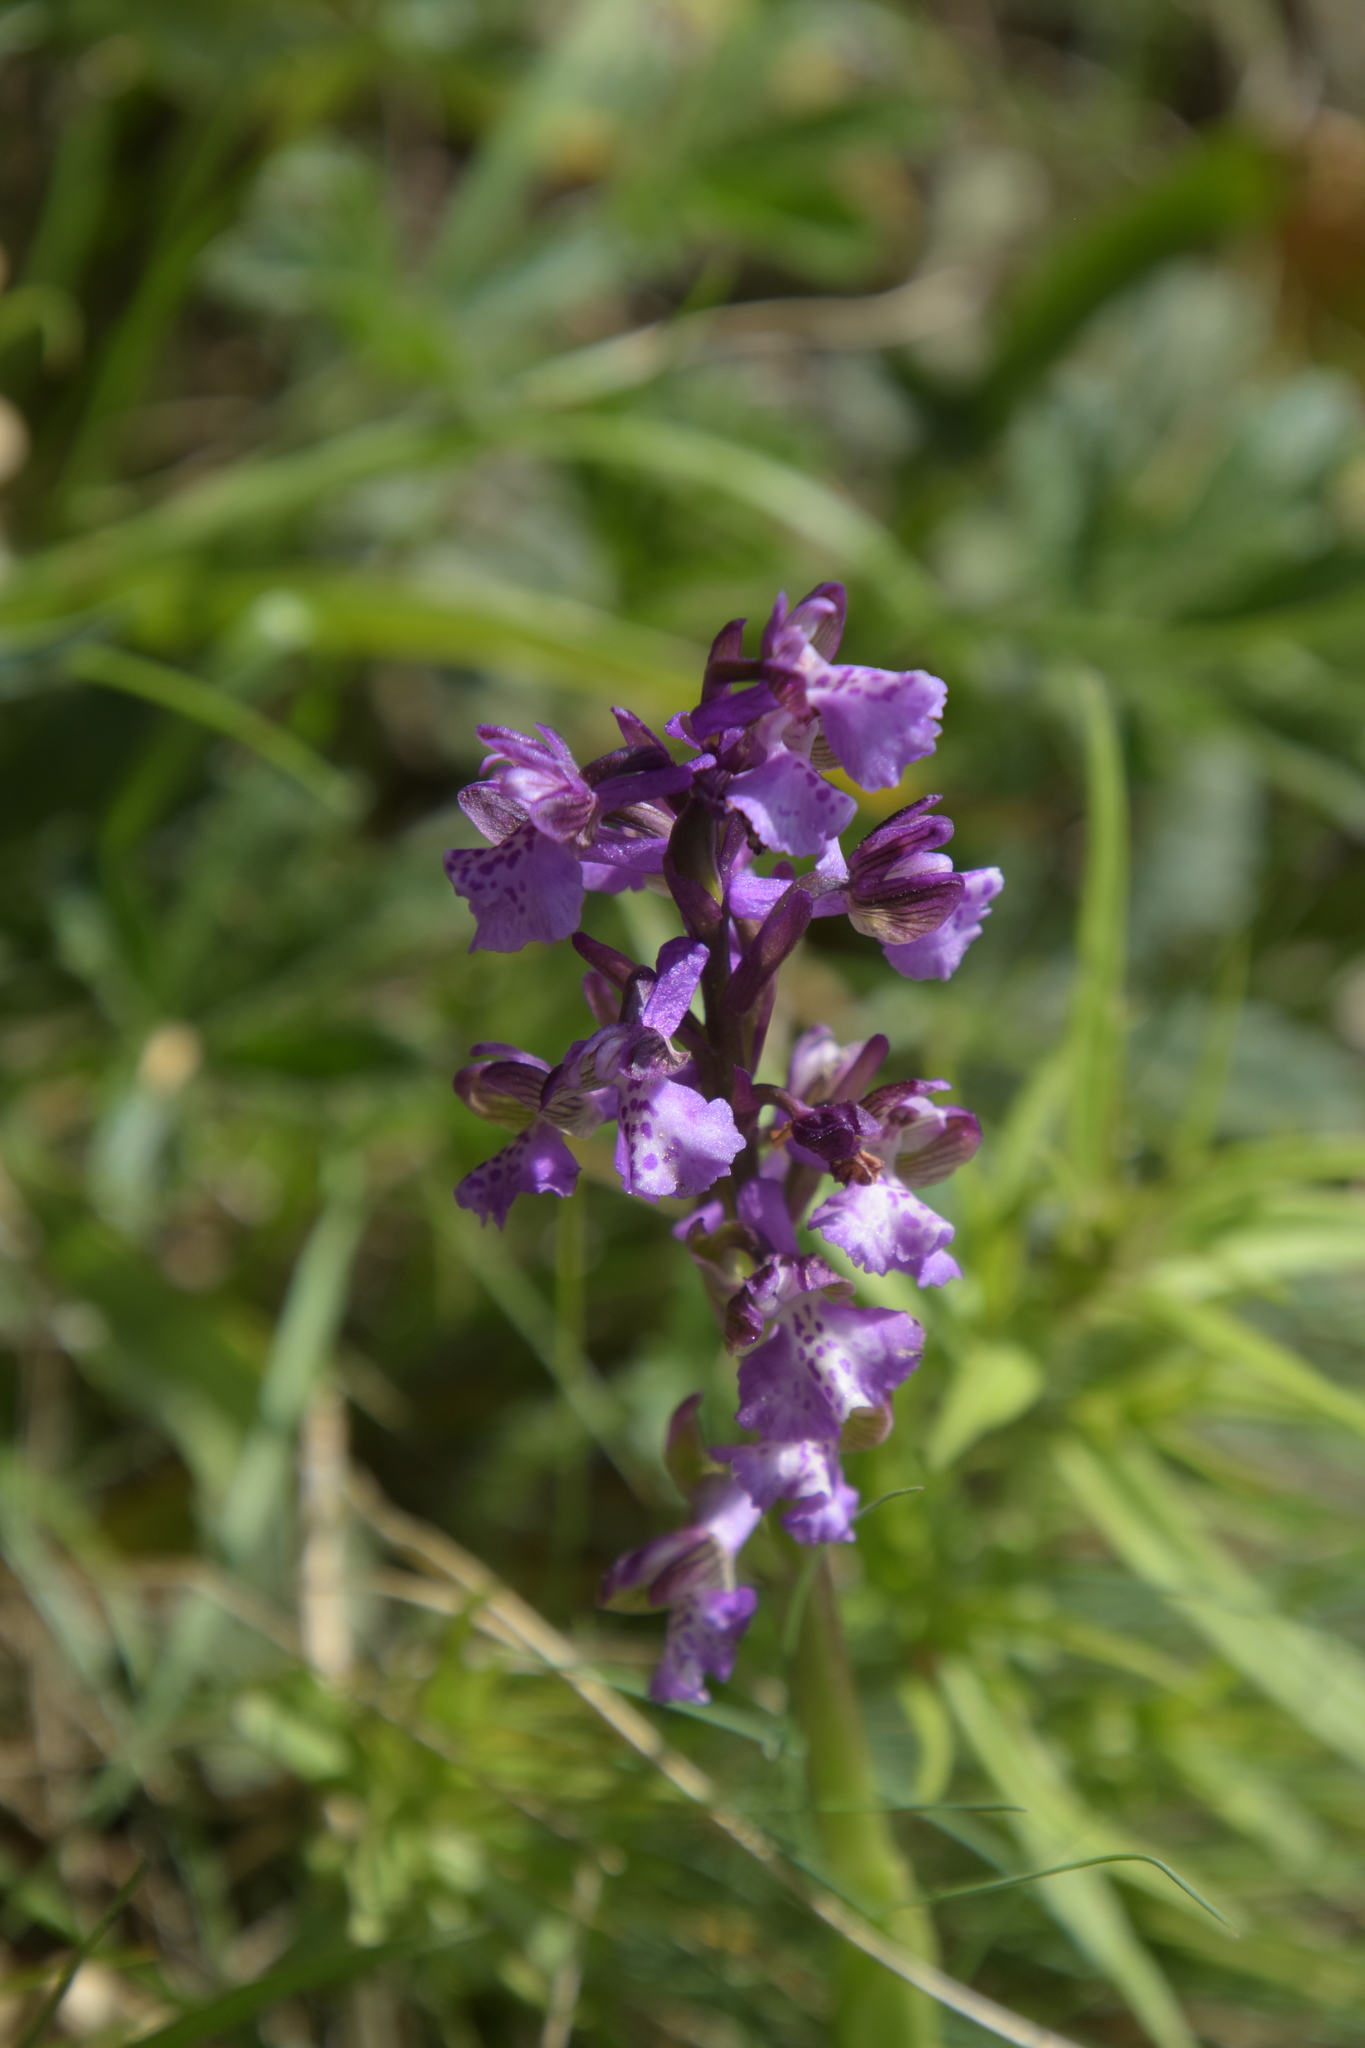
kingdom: Plantae
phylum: Tracheophyta
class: Liliopsida
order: Asparagales
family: Orchidaceae
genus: Anacamptis
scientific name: Anacamptis morio
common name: Green-winged orchid
